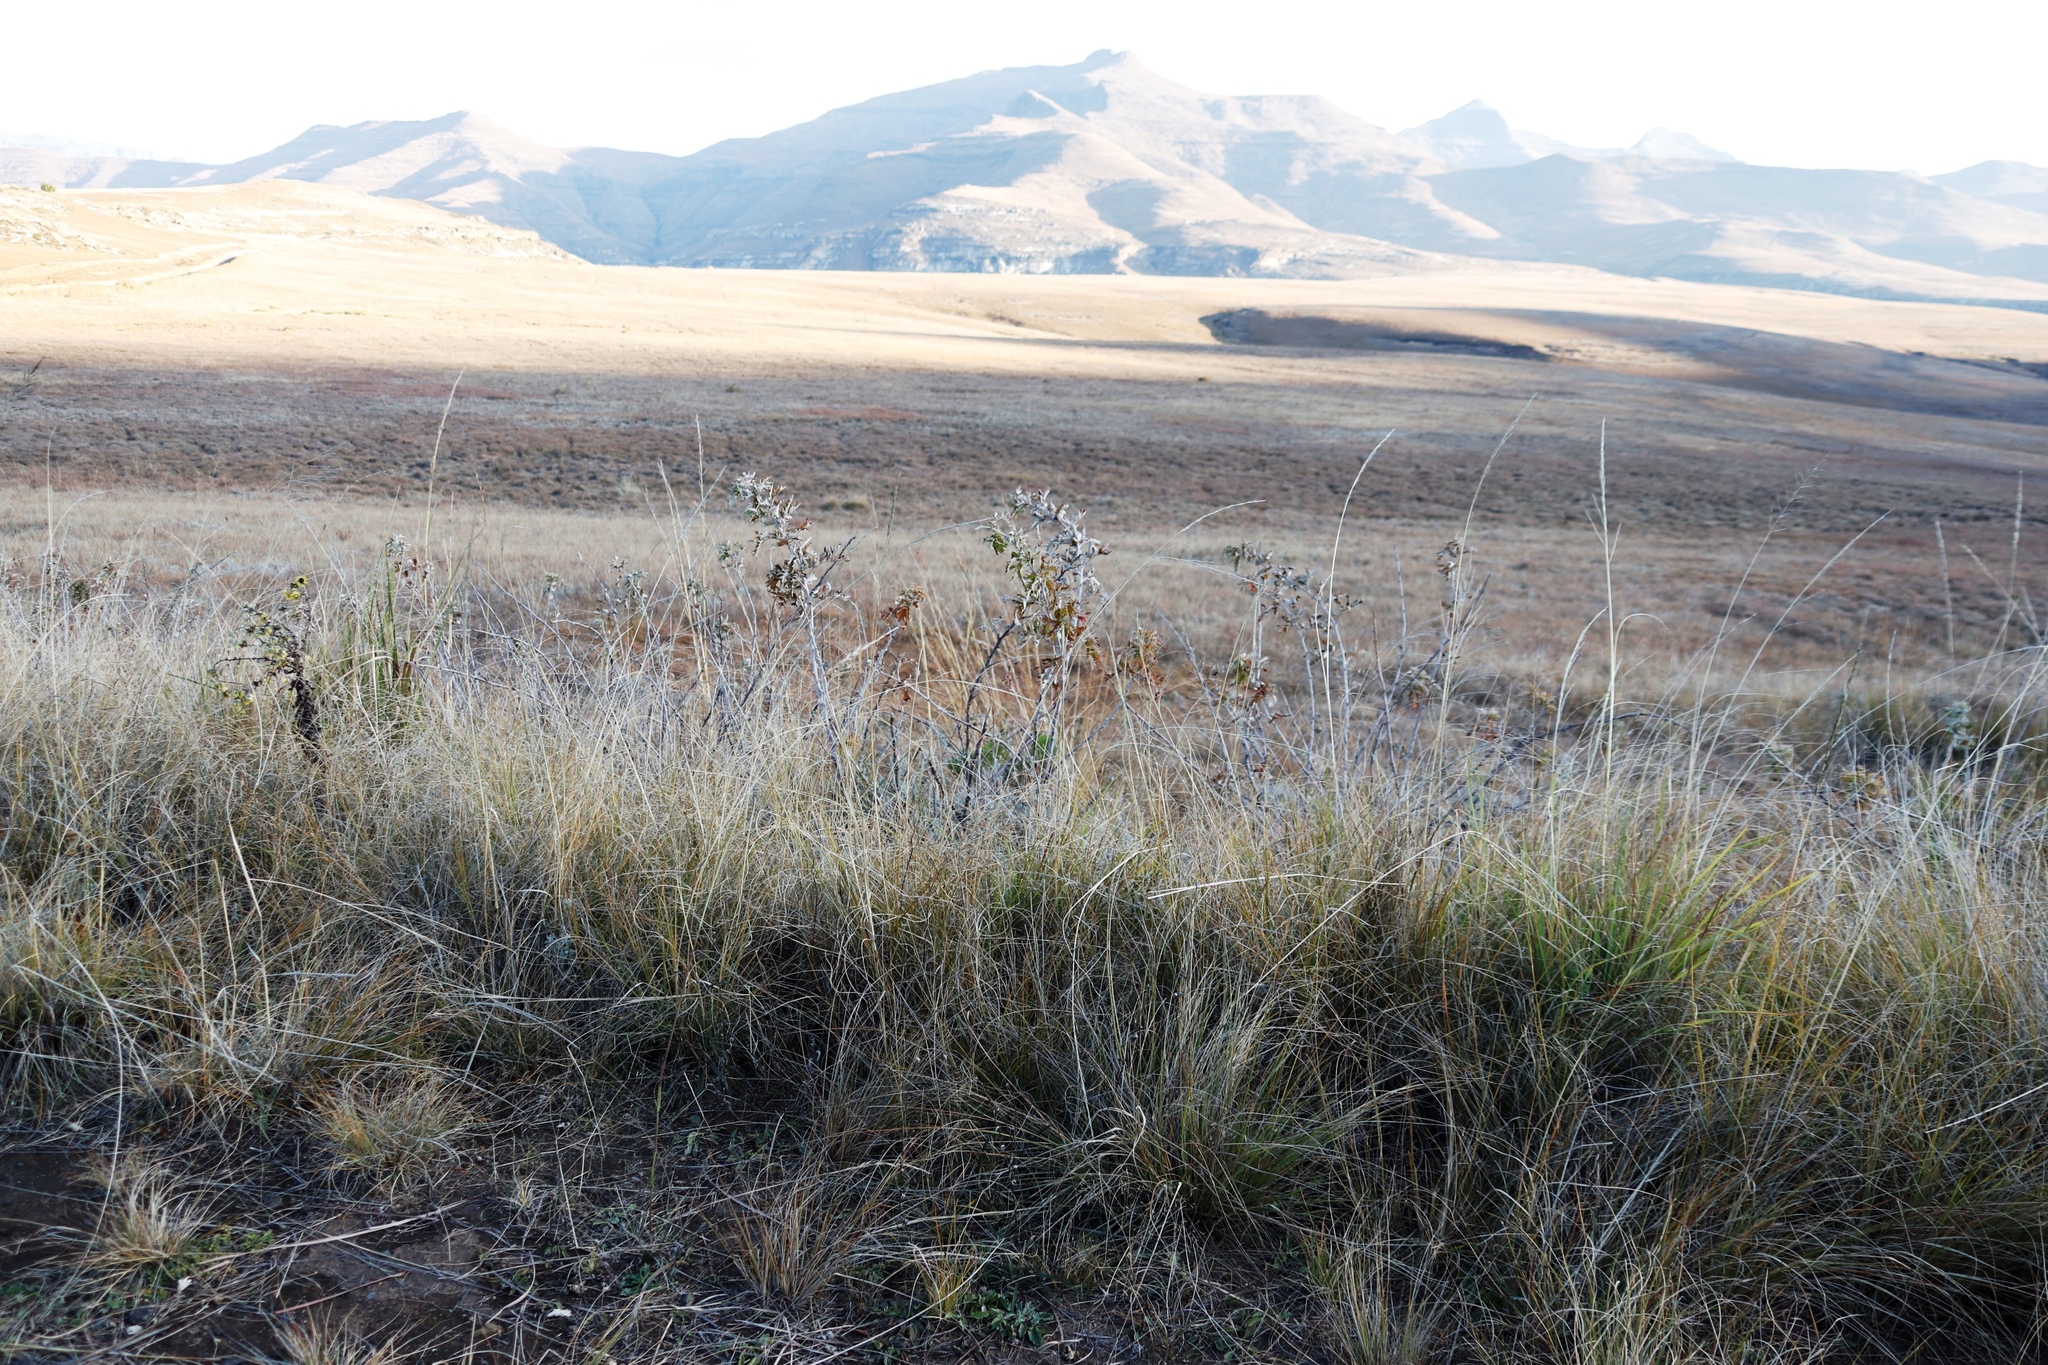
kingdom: Plantae
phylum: Tracheophyta
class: Magnoliopsida
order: Rosales
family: Rosaceae
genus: Rubus
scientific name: Rubus ludwigii
